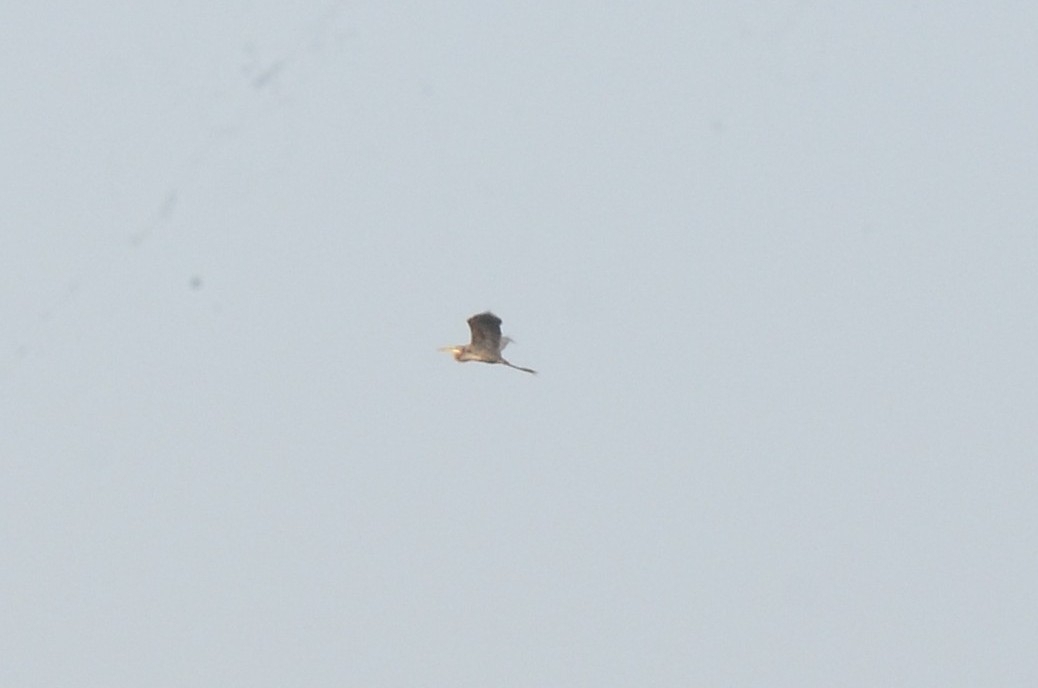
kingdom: Animalia
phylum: Chordata
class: Aves
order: Pelecaniformes
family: Ardeidae
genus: Ardea
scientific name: Ardea purpurea
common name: Purple heron
